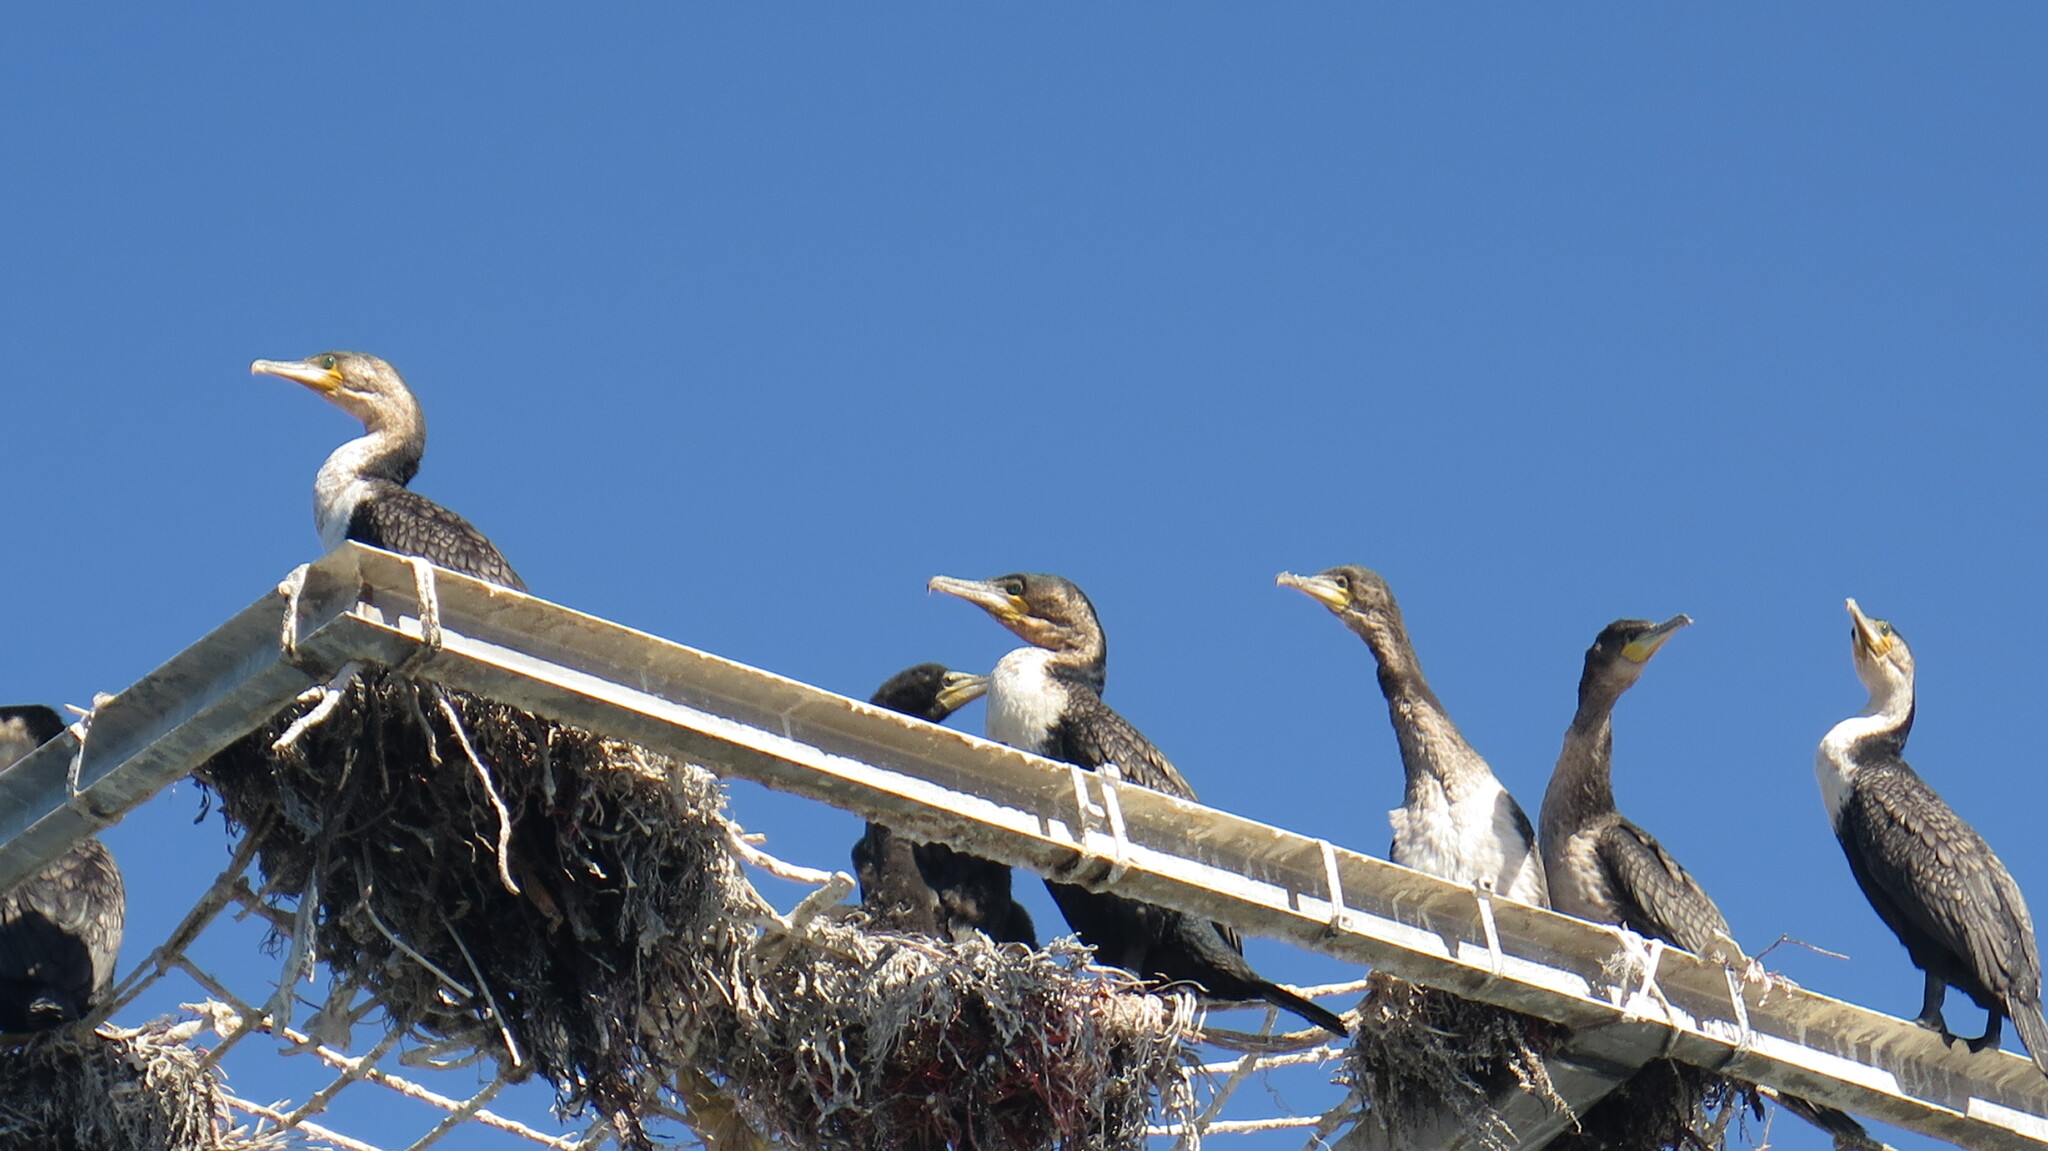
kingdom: Animalia
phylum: Chordata
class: Aves
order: Suliformes
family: Phalacrocoracidae
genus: Phalacrocorax
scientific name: Phalacrocorax carbo
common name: Great cormorant
